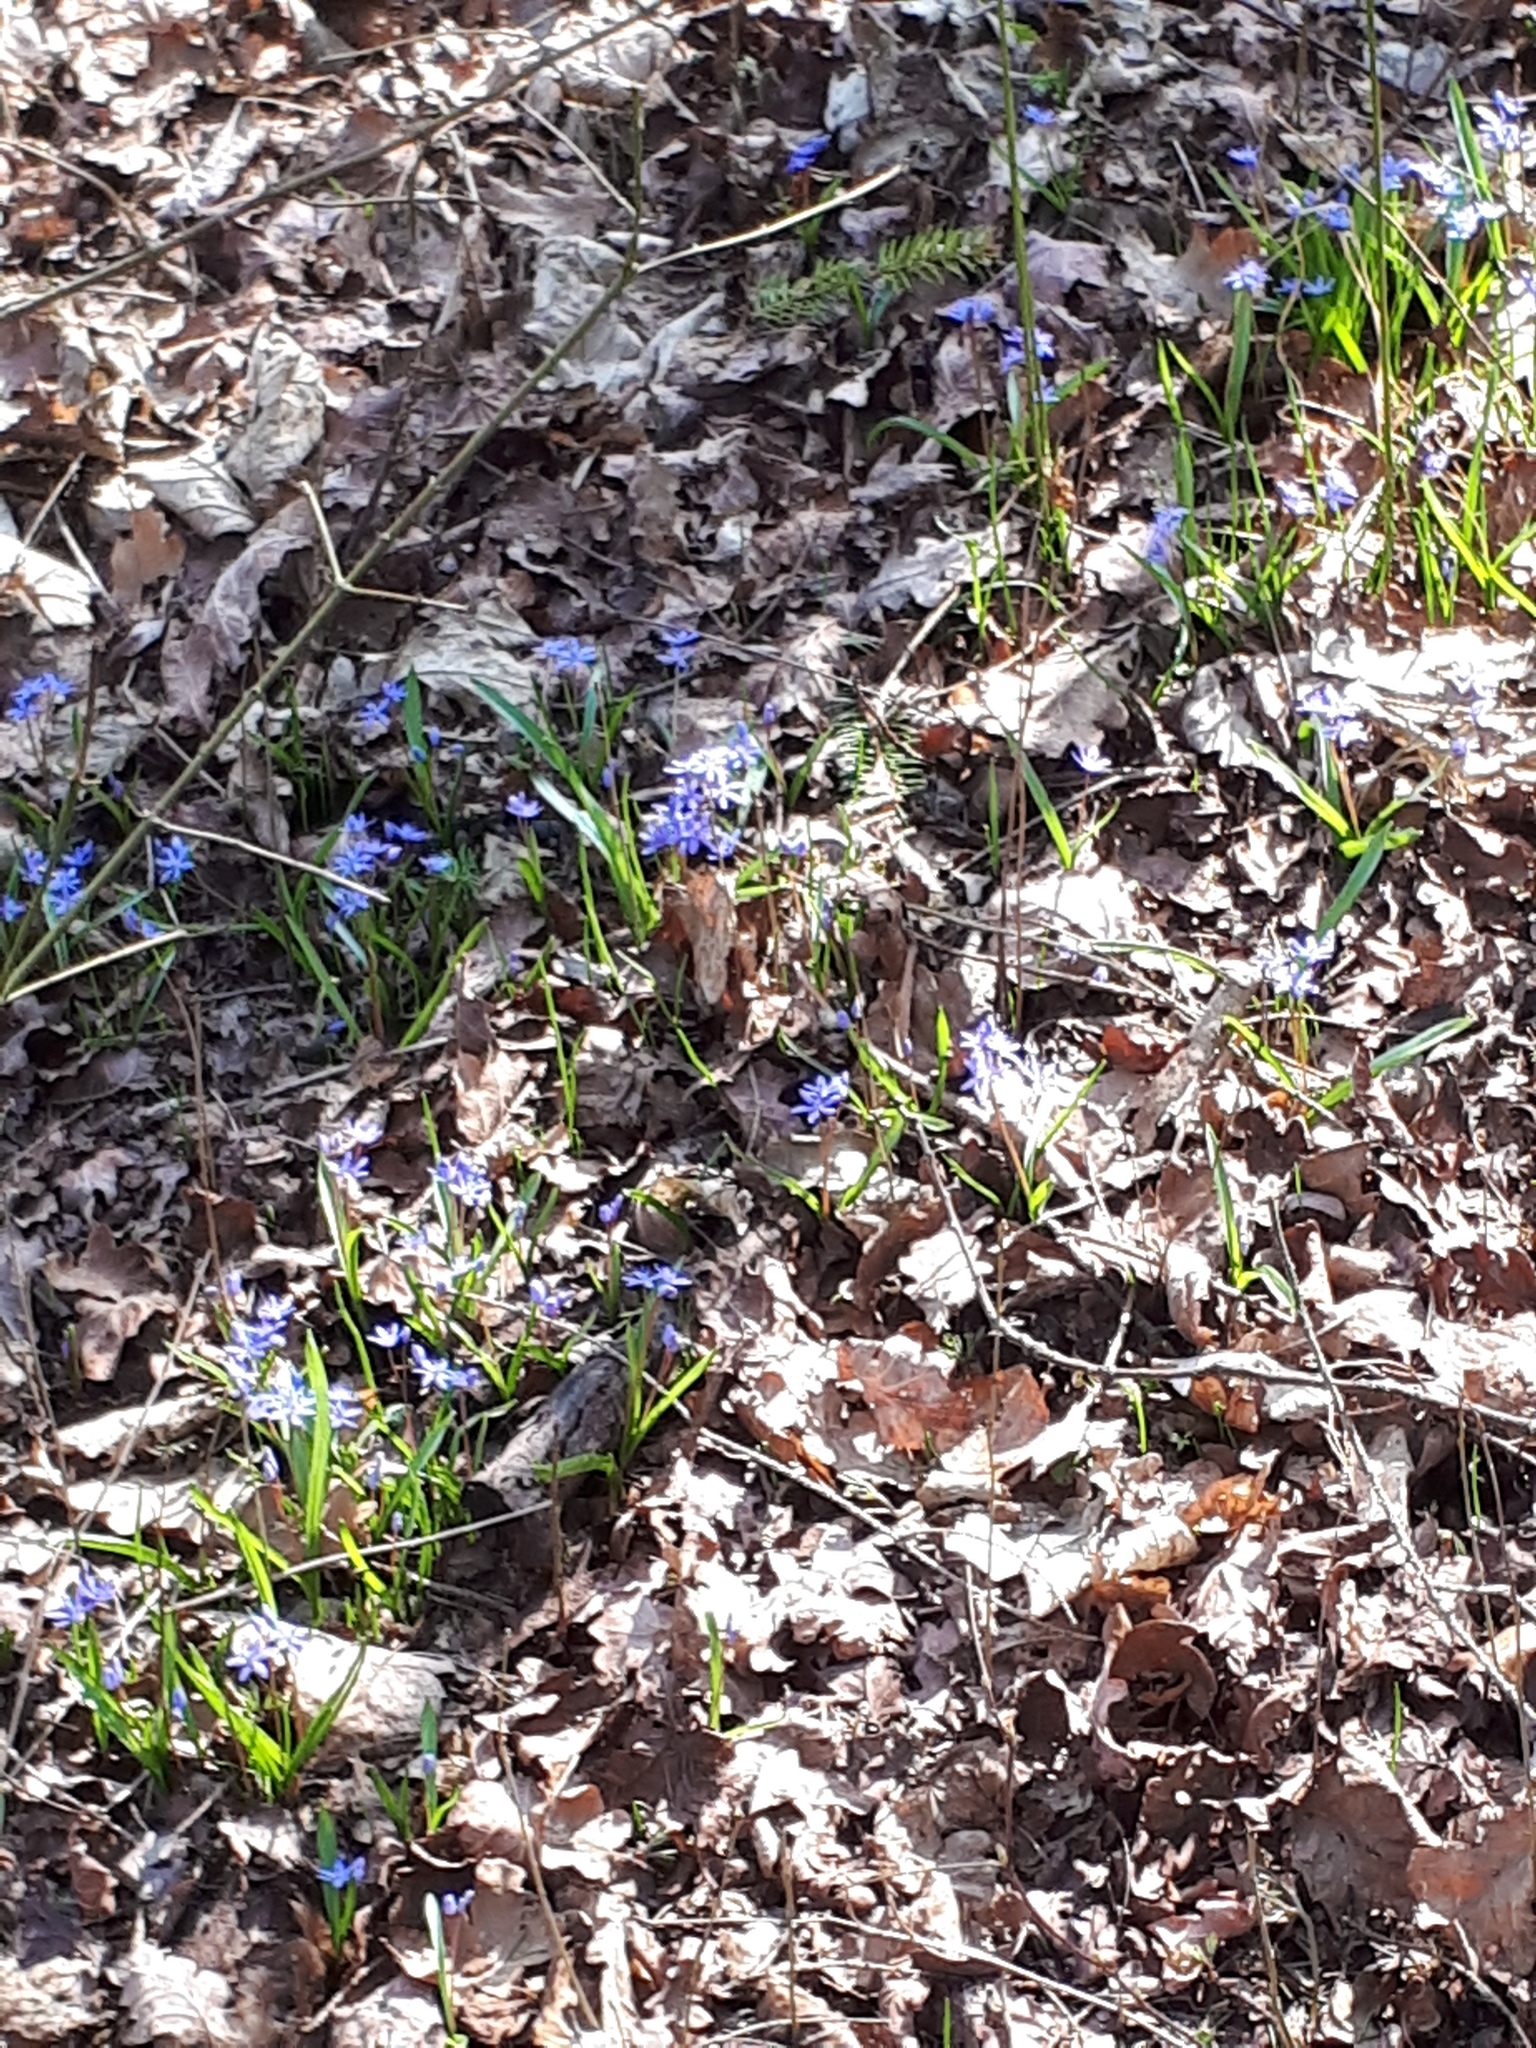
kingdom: Plantae
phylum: Tracheophyta
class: Liliopsida
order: Asparagales
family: Asparagaceae
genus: Scilla
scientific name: Scilla bifolia
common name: Alpine squill
